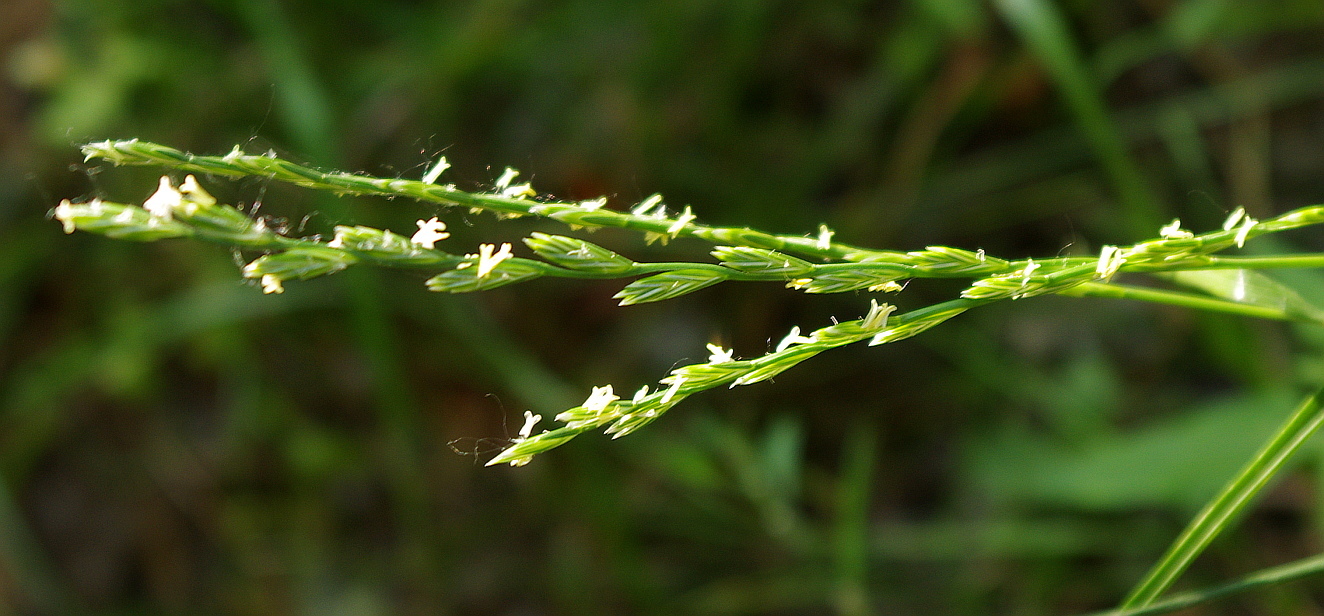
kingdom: Plantae
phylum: Tracheophyta
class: Liliopsida
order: Poales
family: Poaceae
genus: Lolium
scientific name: Lolium perenne
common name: Perennial ryegrass
